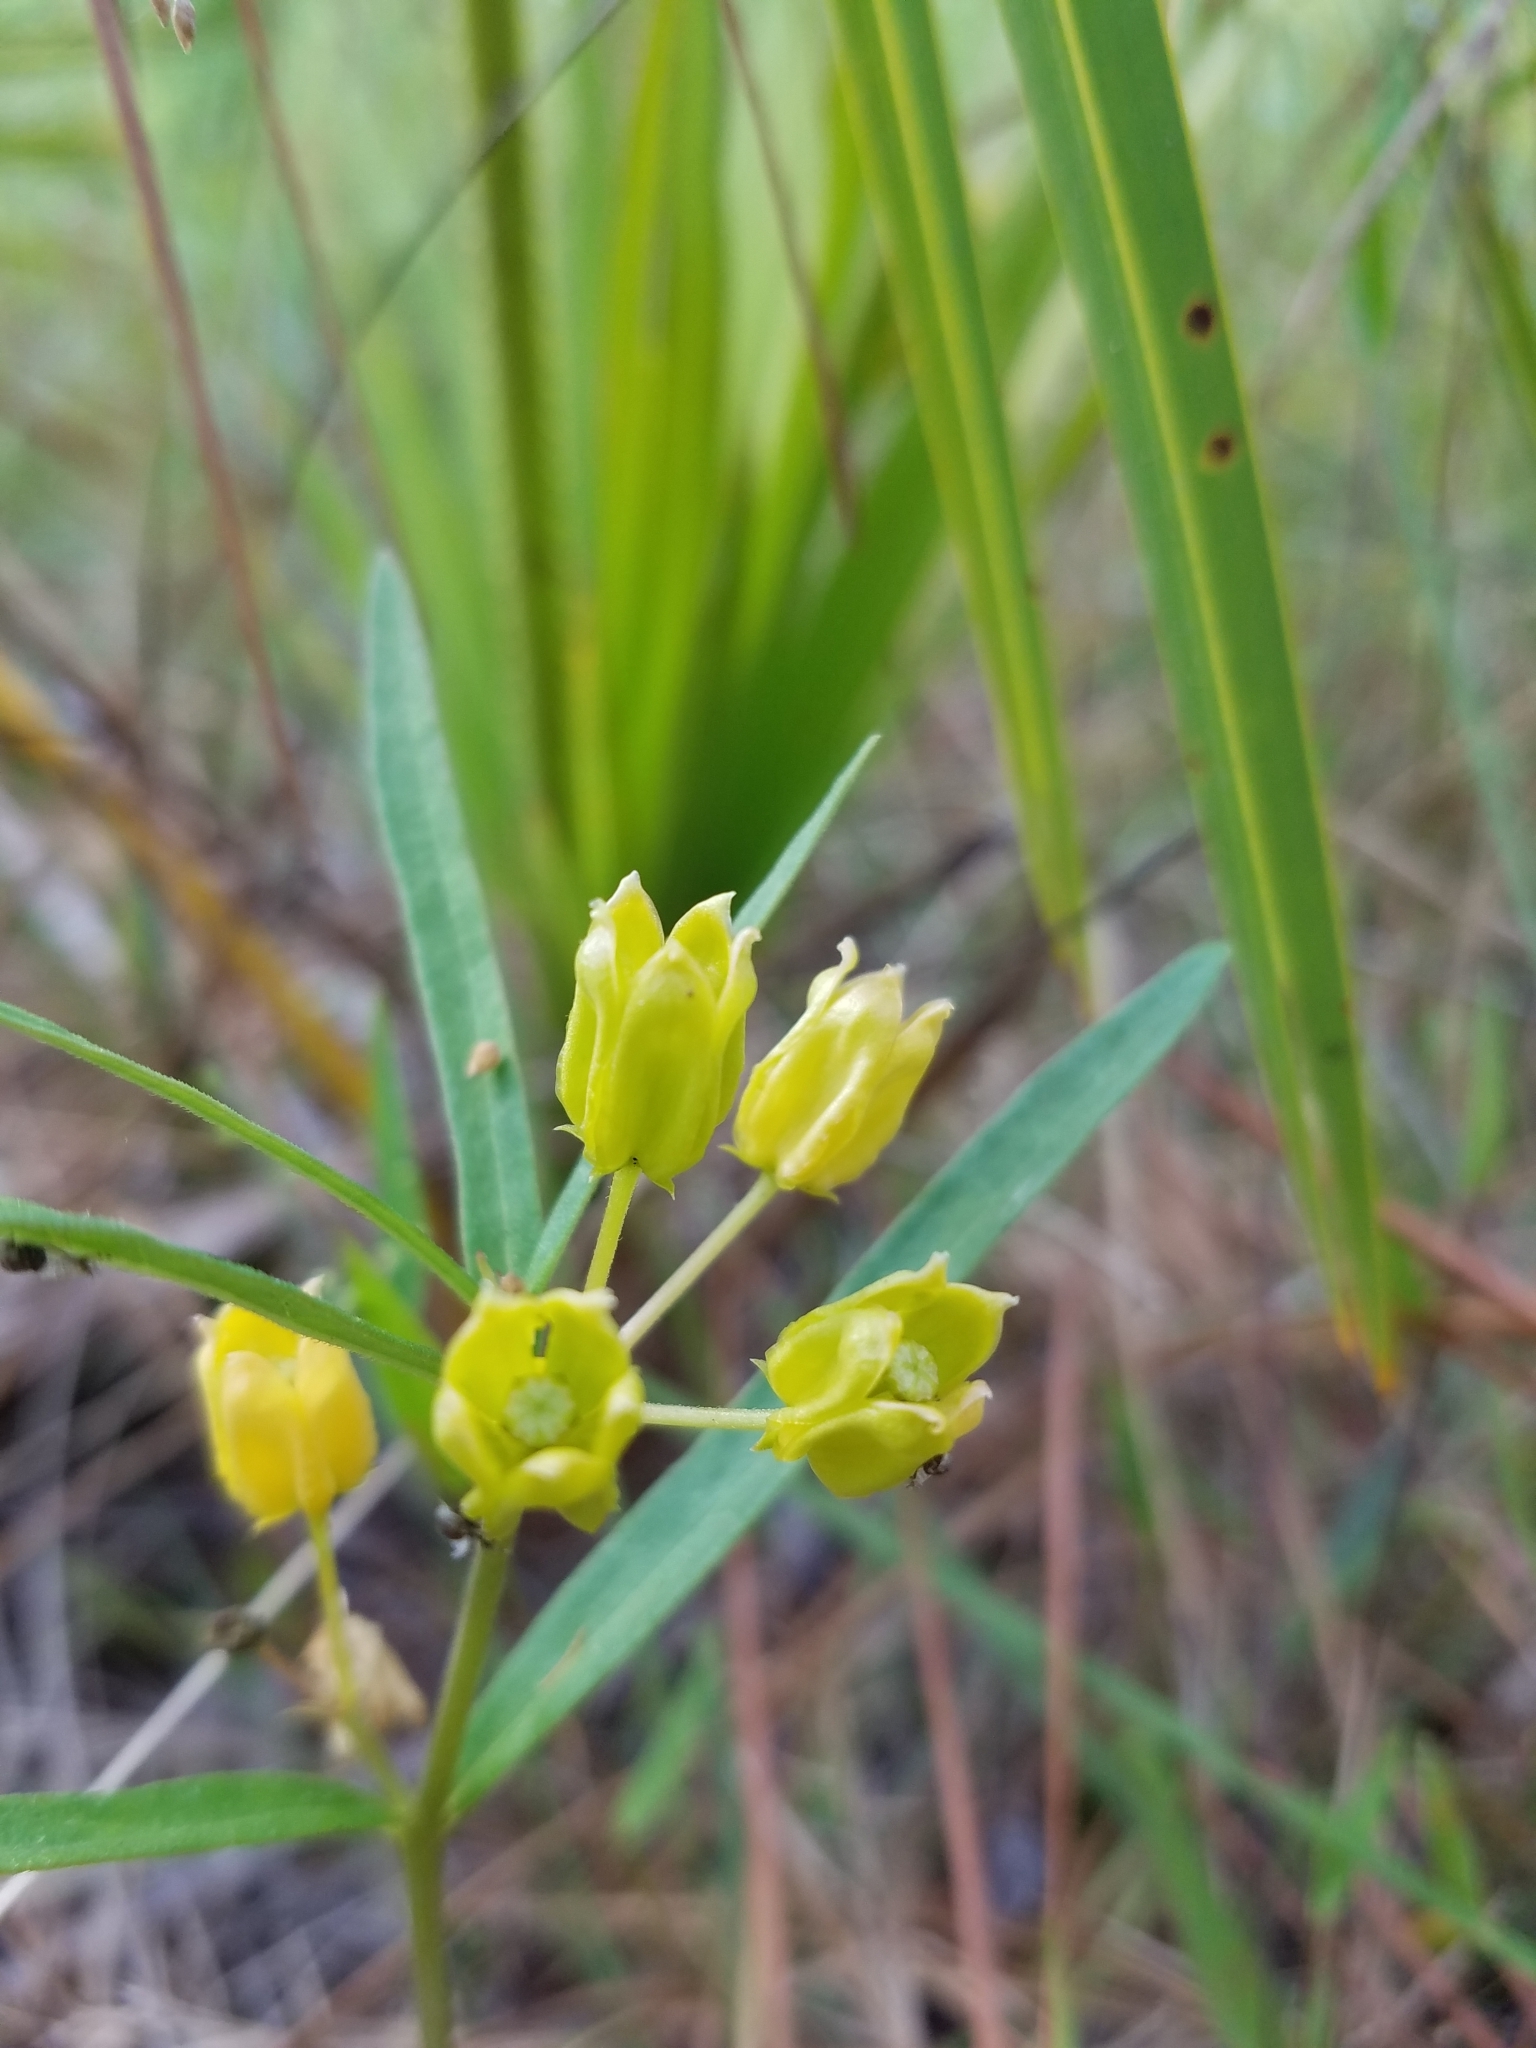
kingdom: Plantae
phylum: Tracheophyta
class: Magnoliopsida
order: Gentianales
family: Apocynaceae
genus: Asclepias
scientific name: Asclepias pedicellata
